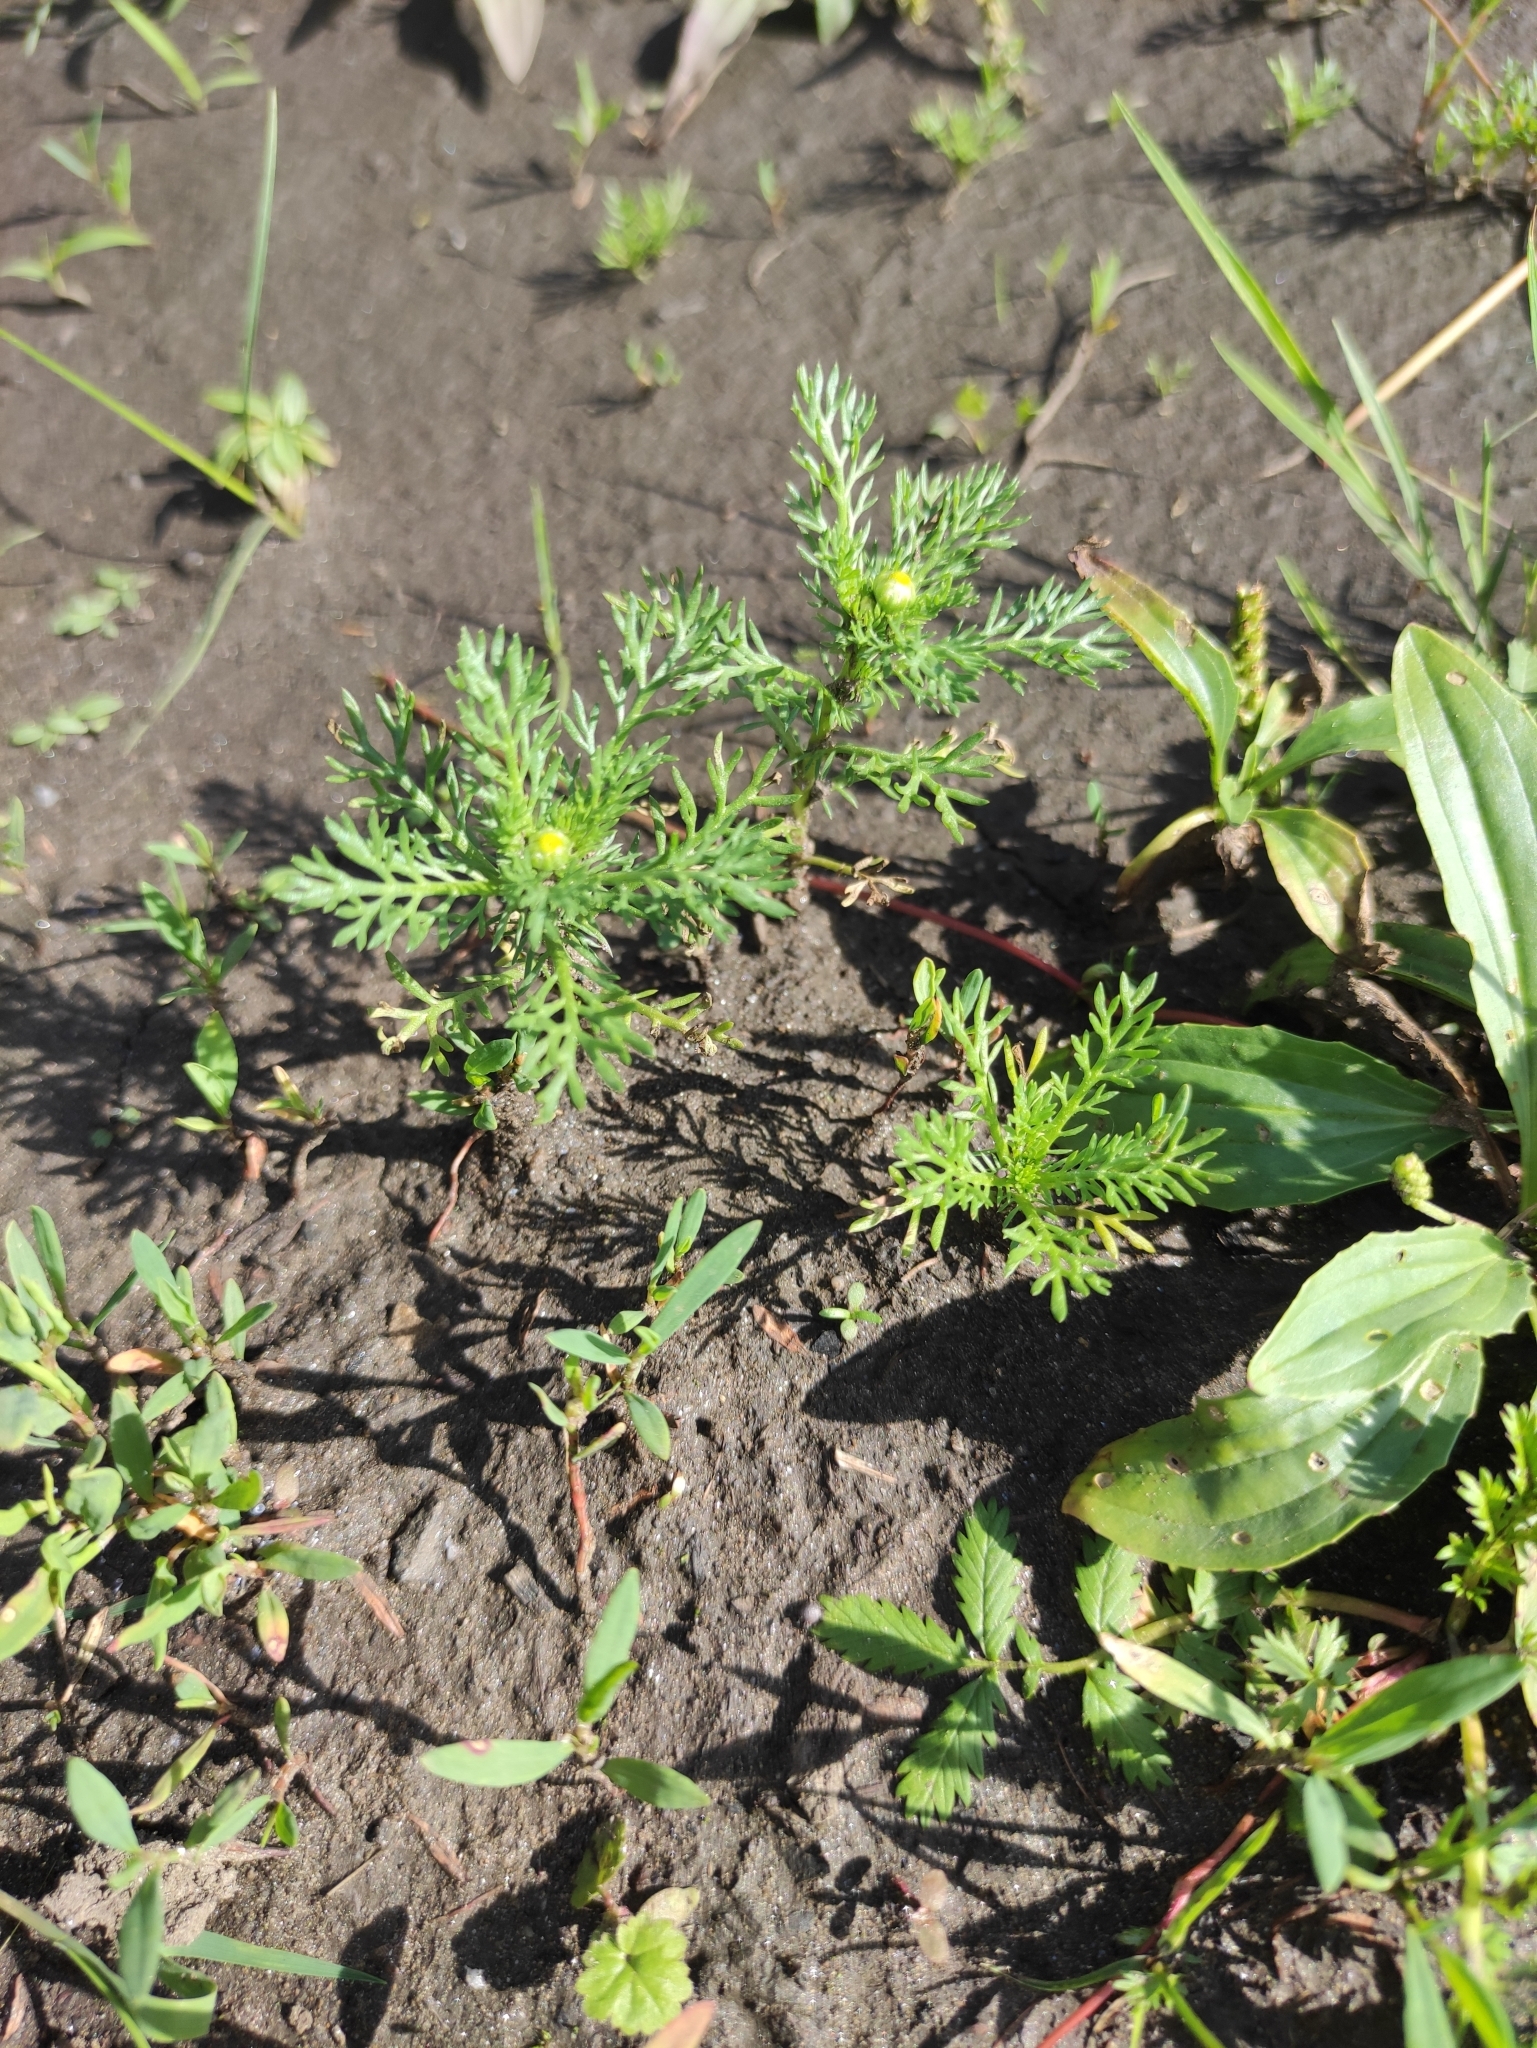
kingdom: Plantae
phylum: Tracheophyta
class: Magnoliopsida
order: Asterales
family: Asteraceae
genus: Matricaria
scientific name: Matricaria discoidea
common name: Disc mayweed
